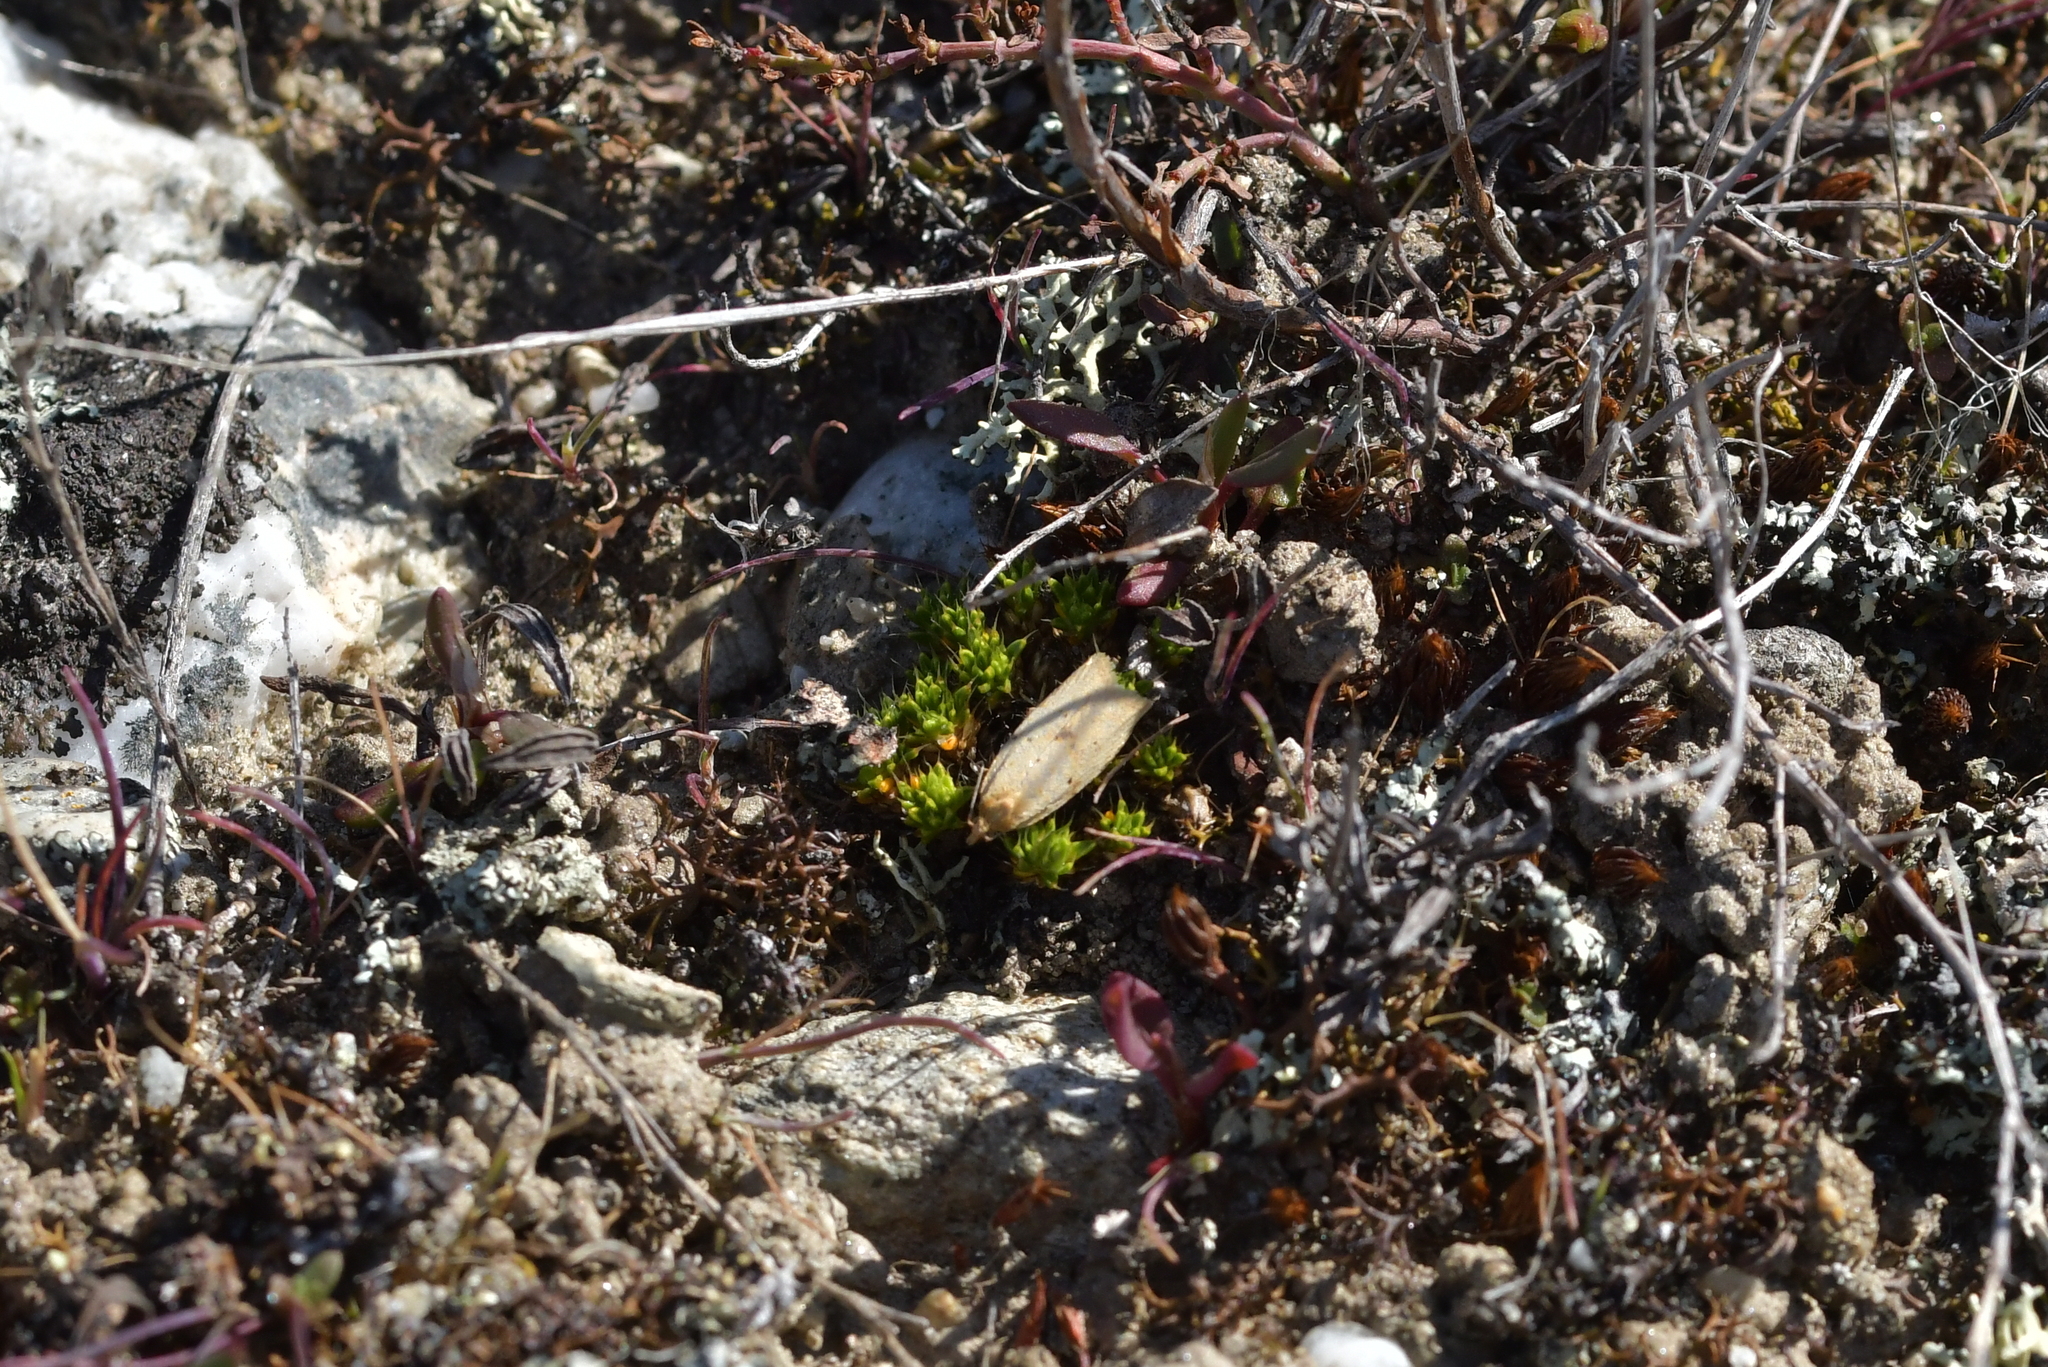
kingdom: Animalia
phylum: Arthropoda
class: Insecta
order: Lepidoptera
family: Tortricidae
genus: Clepsis
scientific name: Clepsis
